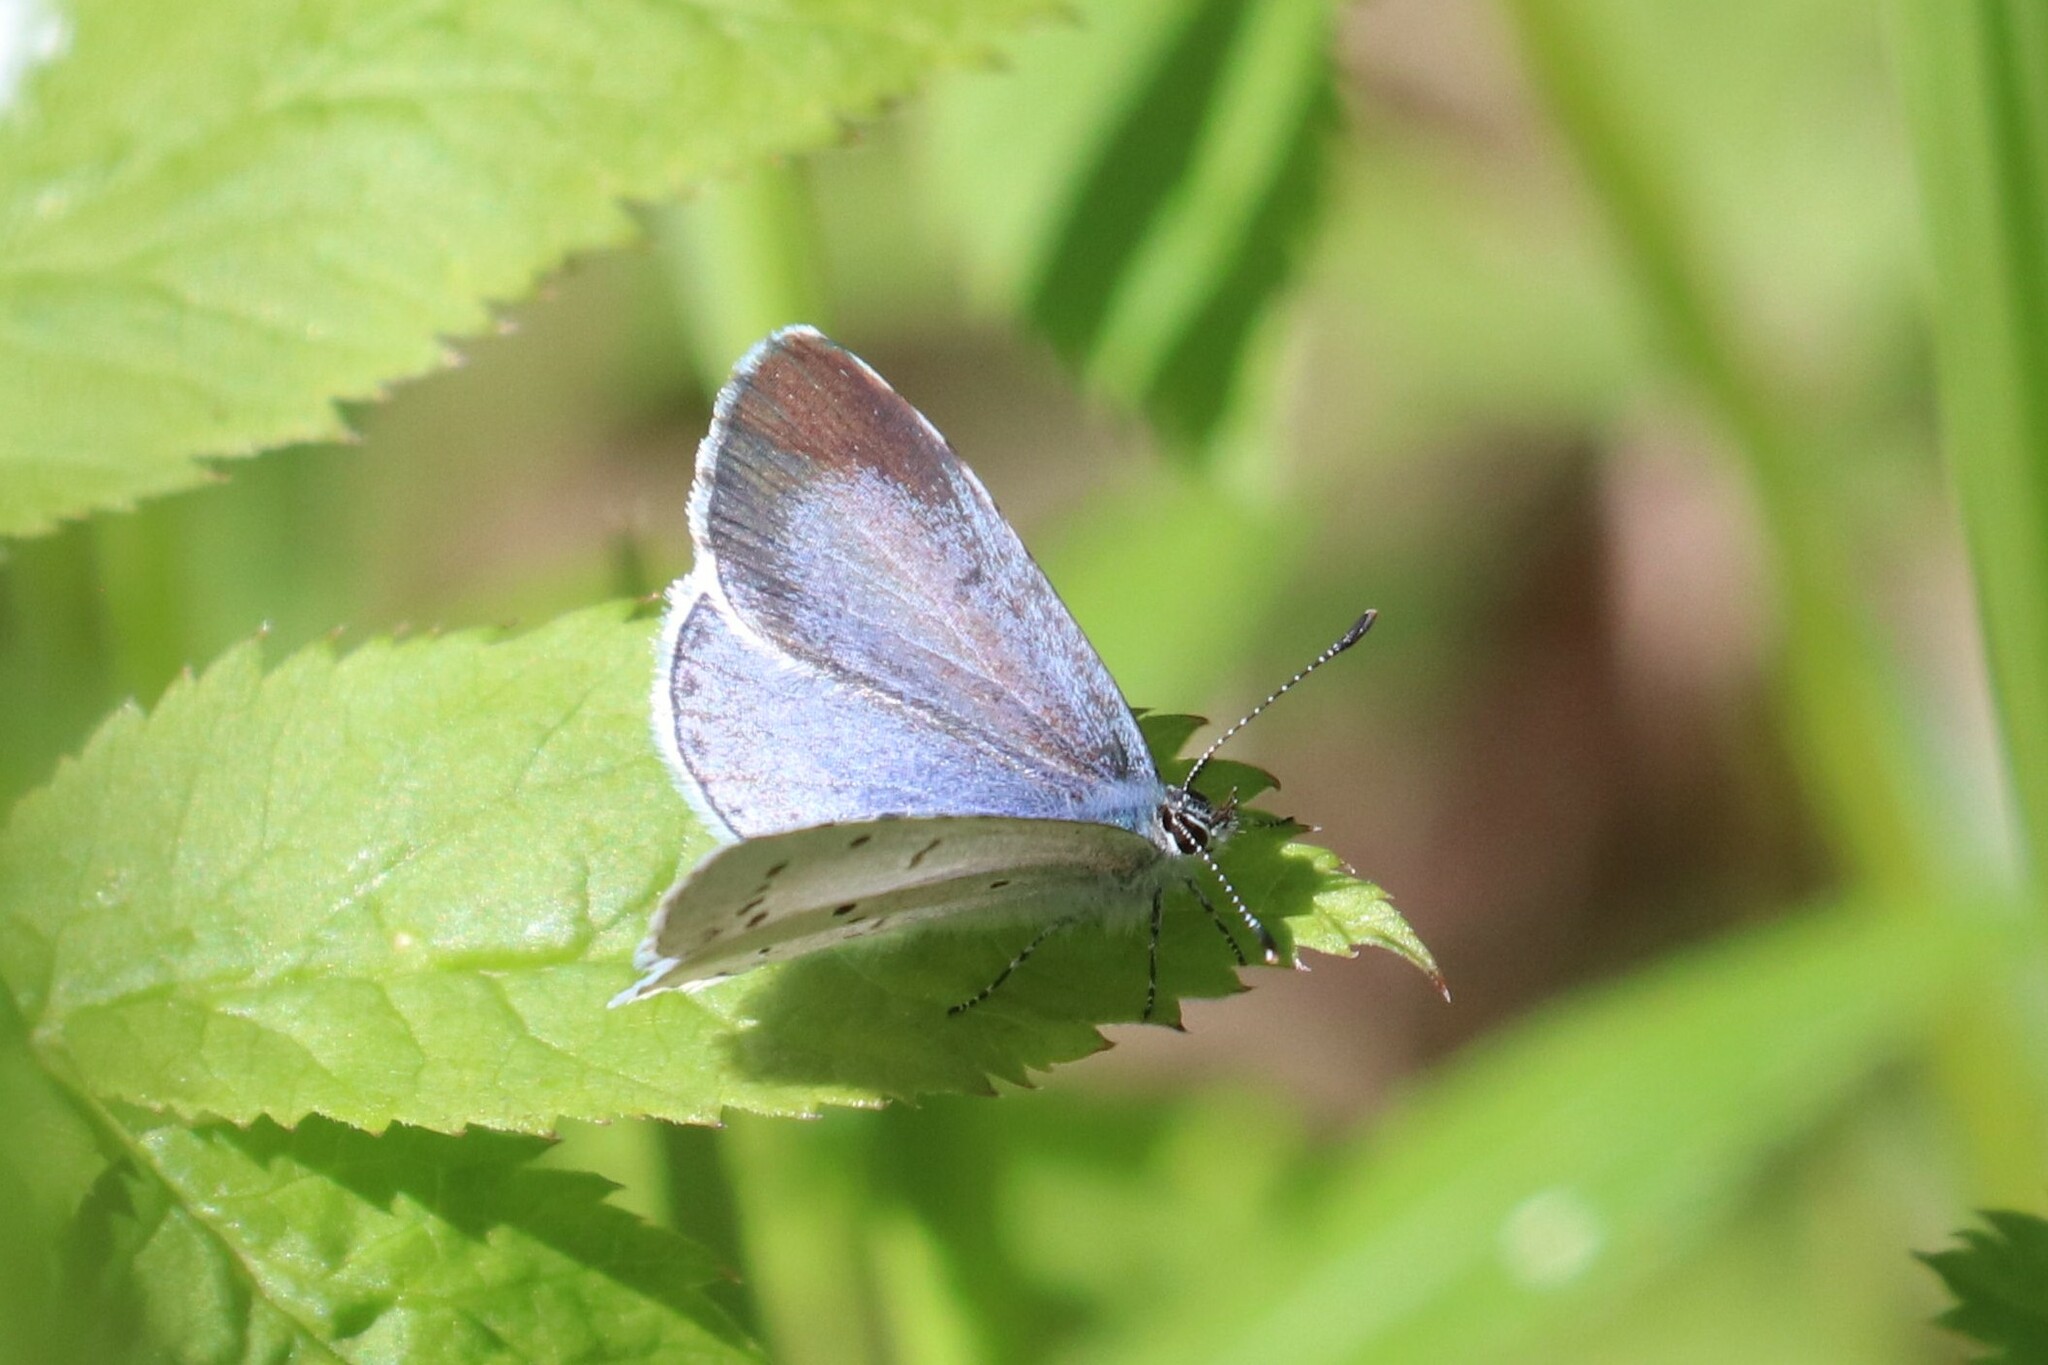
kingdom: Animalia
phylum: Arthropoda
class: Insecta
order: Lepidoptera
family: Lycaenidae
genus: Celastrina
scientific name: Celastrina argiolus
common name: Holly blue
